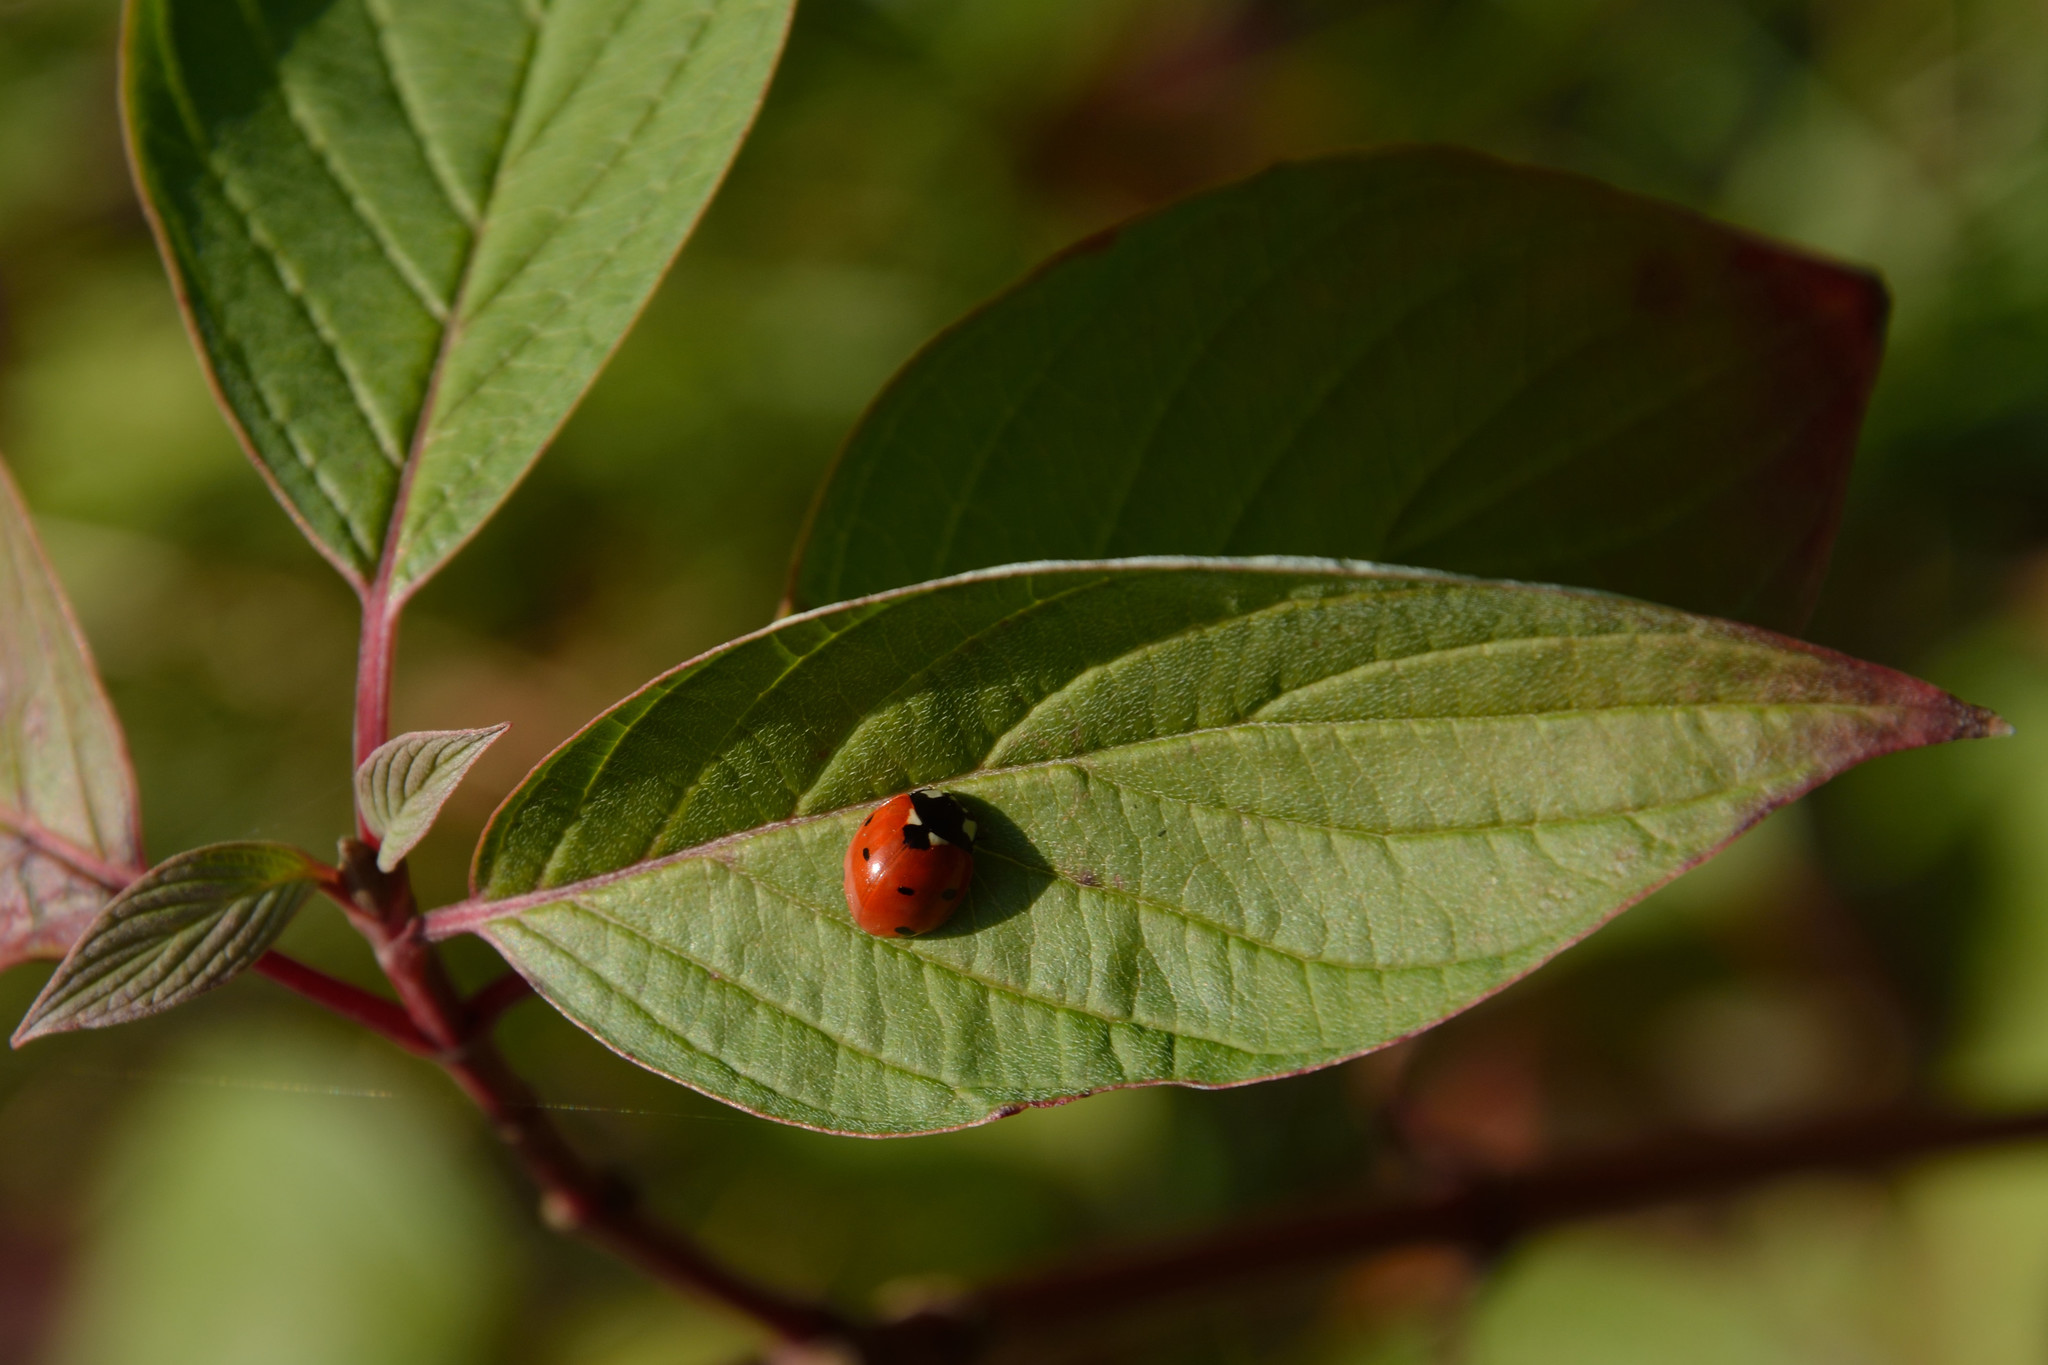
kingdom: Animalia
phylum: Arthropoda
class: Insecta
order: Coleoptera
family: Coccinellidae
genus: Coccinella
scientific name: Coccinella septempunctata
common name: Sevenspotted lady beetle
